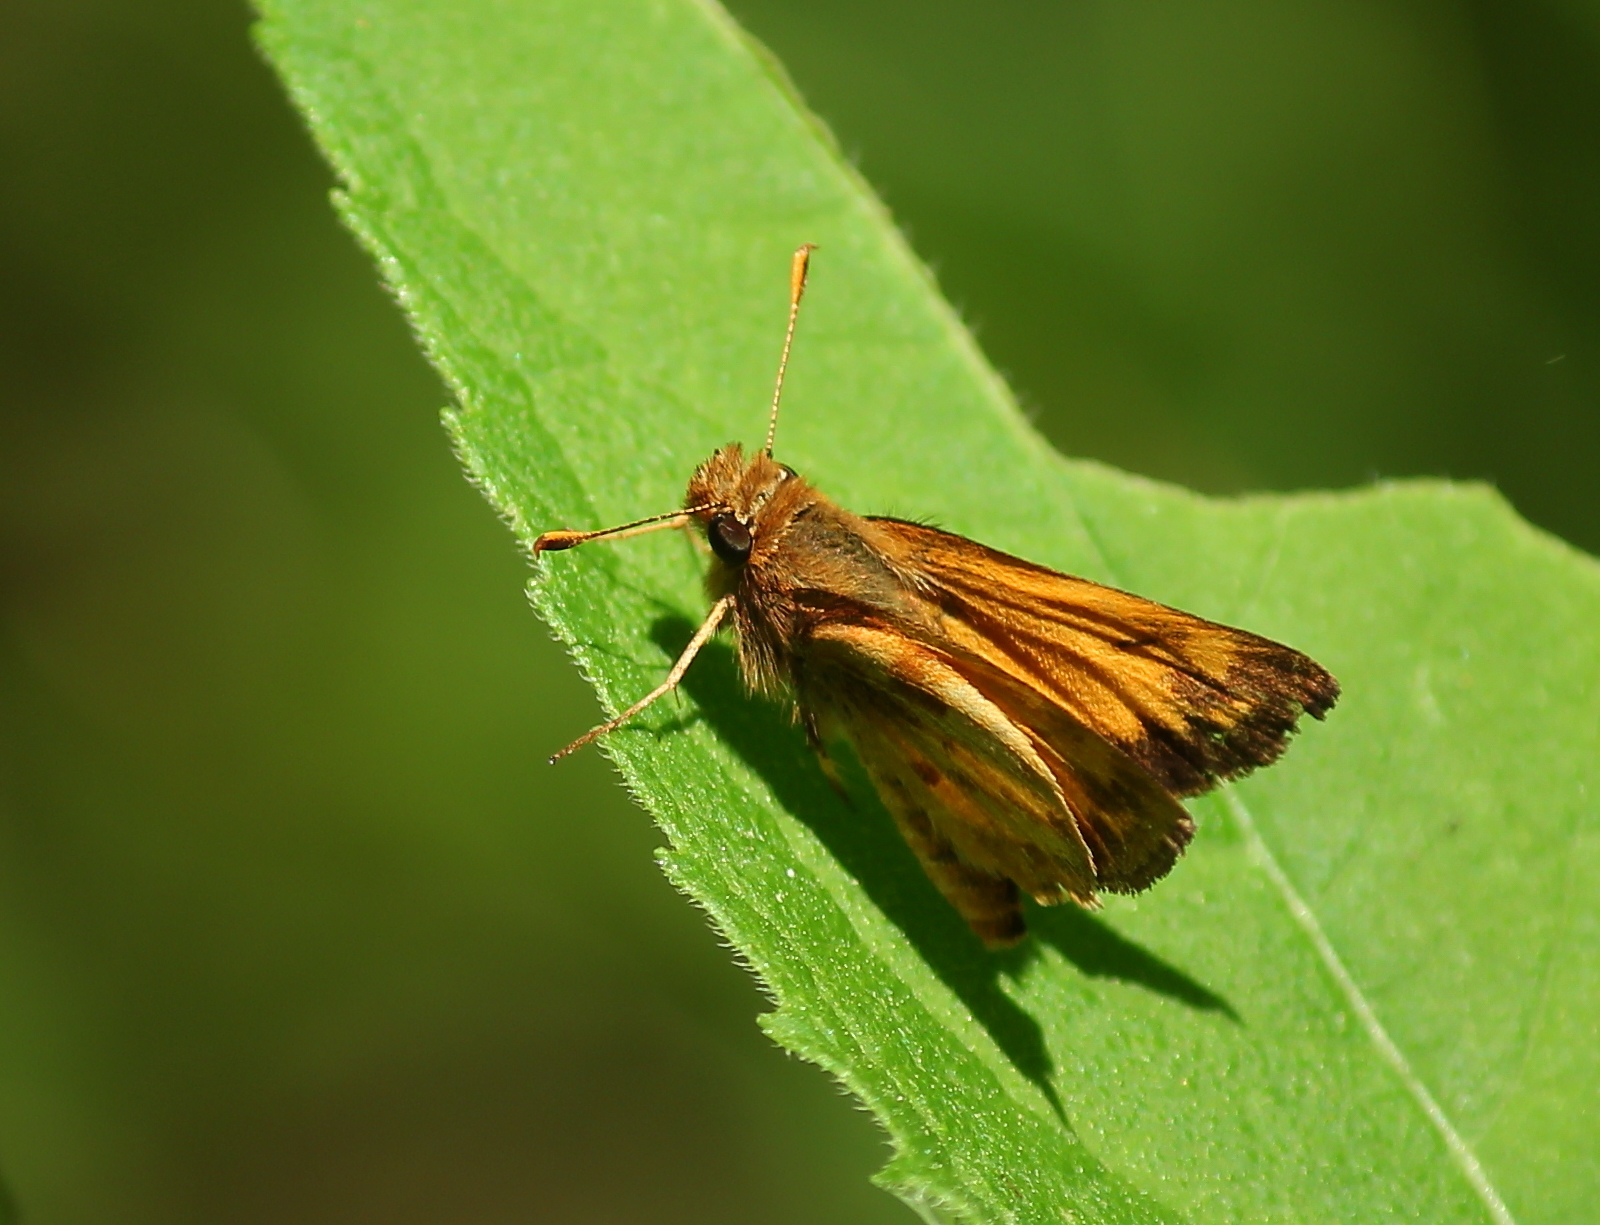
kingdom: Animalia
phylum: Arthropoda
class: Insecta
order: Lepidoptera
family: Hesperiidae
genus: Hylephila
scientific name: Hylephila phyleus
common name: Fiery skipper
